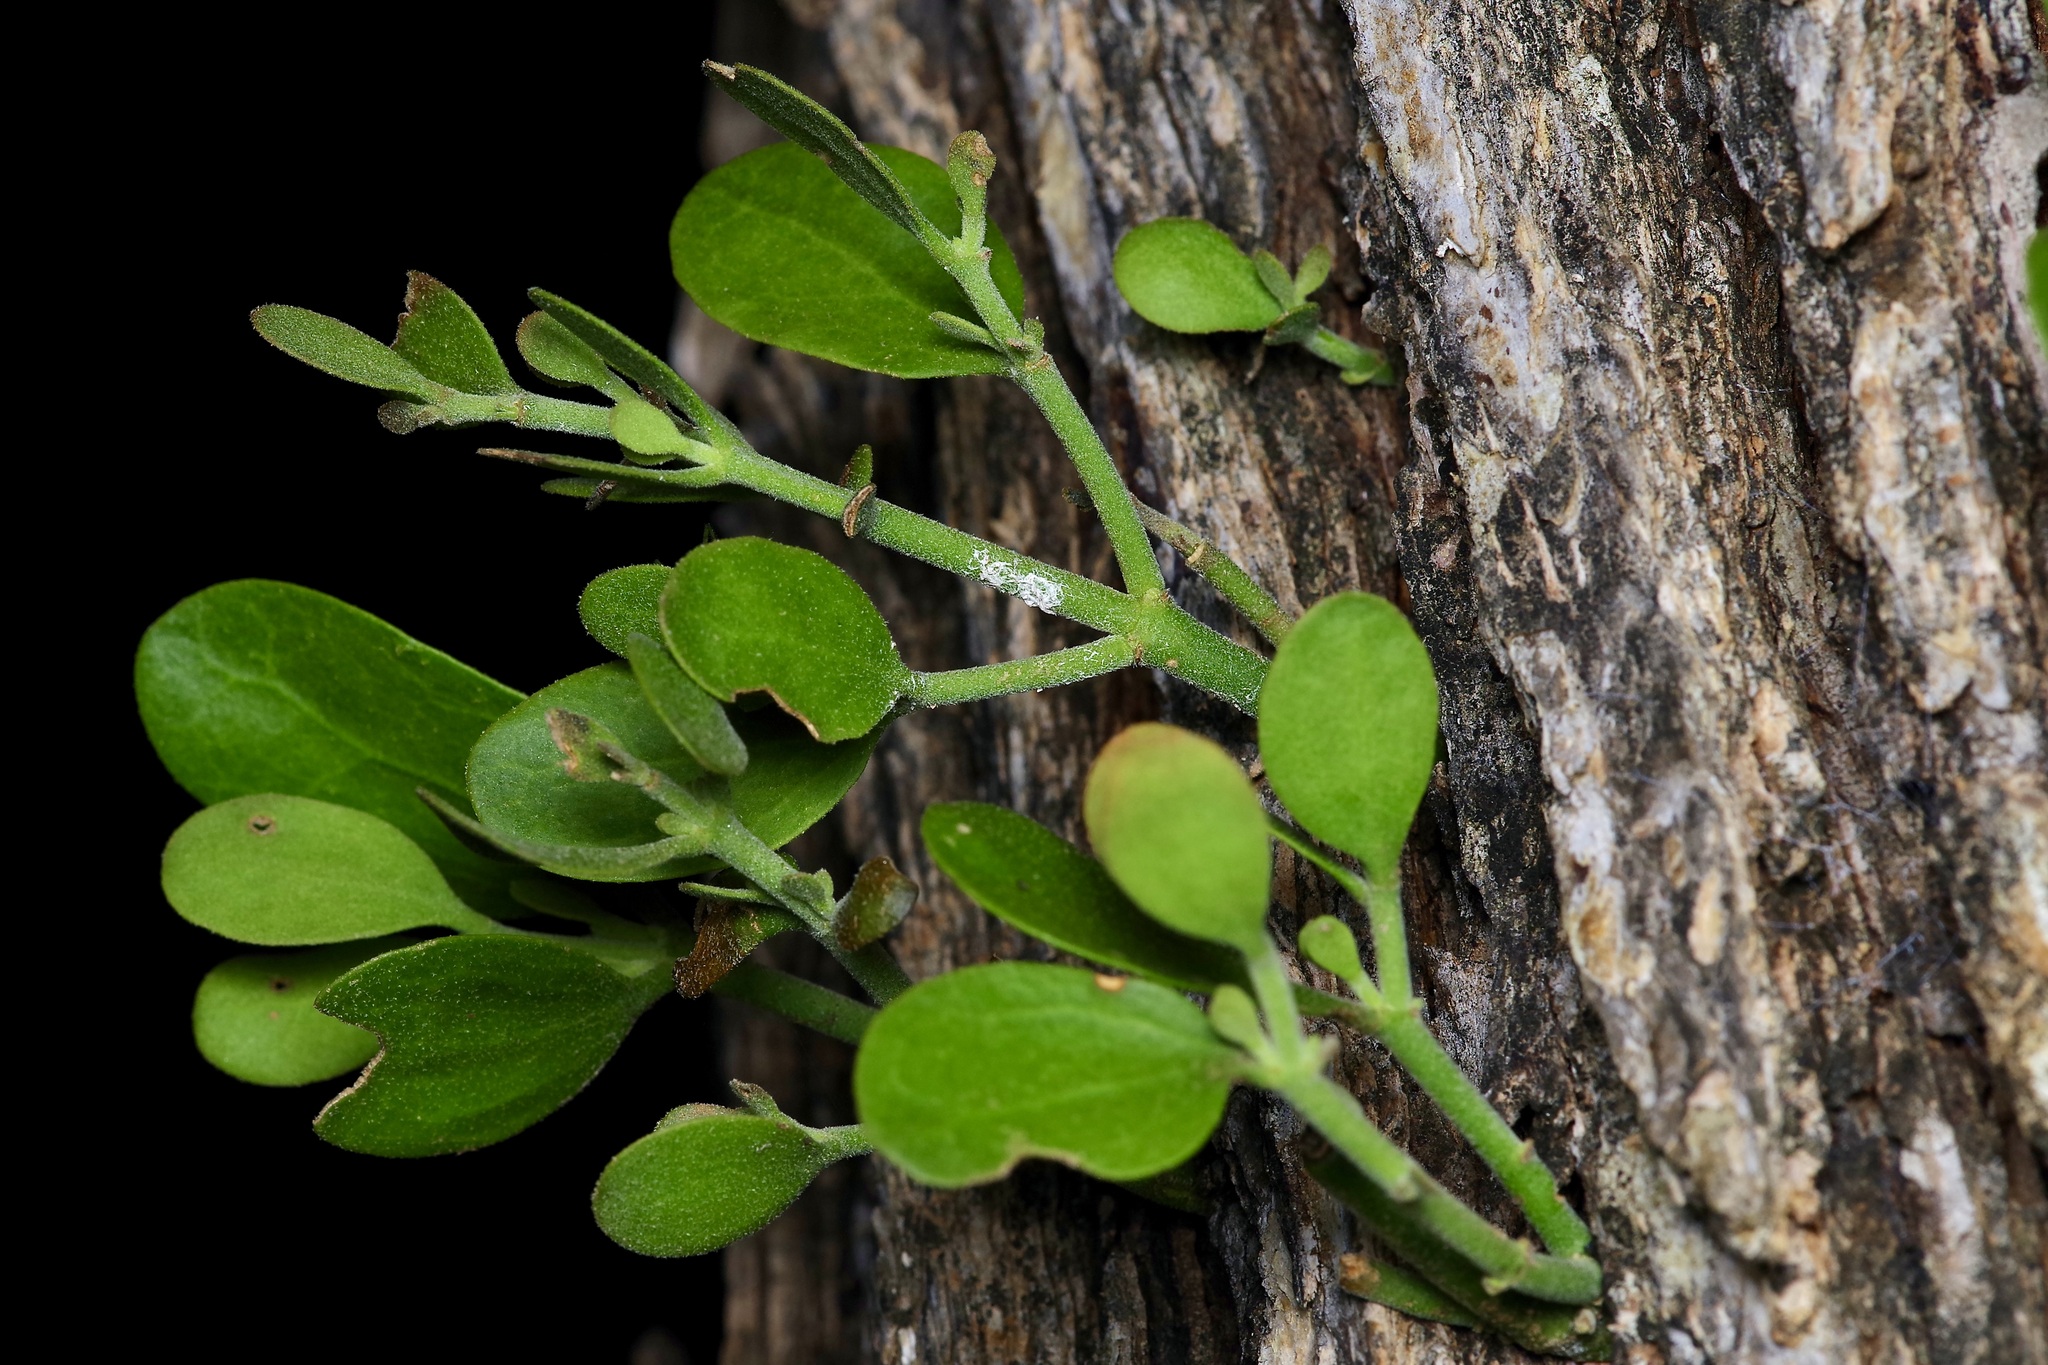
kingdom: Plantae
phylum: Tracheophyta
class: Magnoliopsida
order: Santalales
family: Viscaceae
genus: Phoradendron
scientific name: Phoradendron leucarpum
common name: Pacific mistletoe
